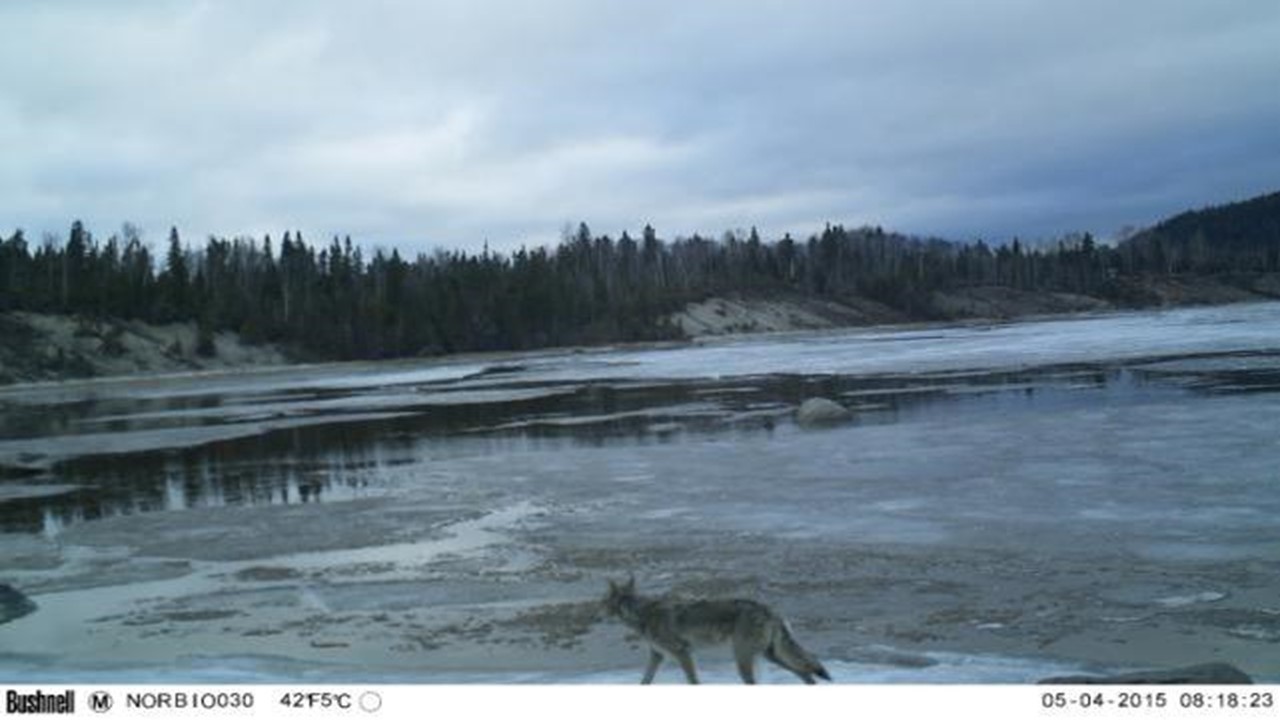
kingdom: Animalia
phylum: Chordata
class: Mammalia
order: Carnivora
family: Canidae
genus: Canis
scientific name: Canis latrans
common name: Coyote
